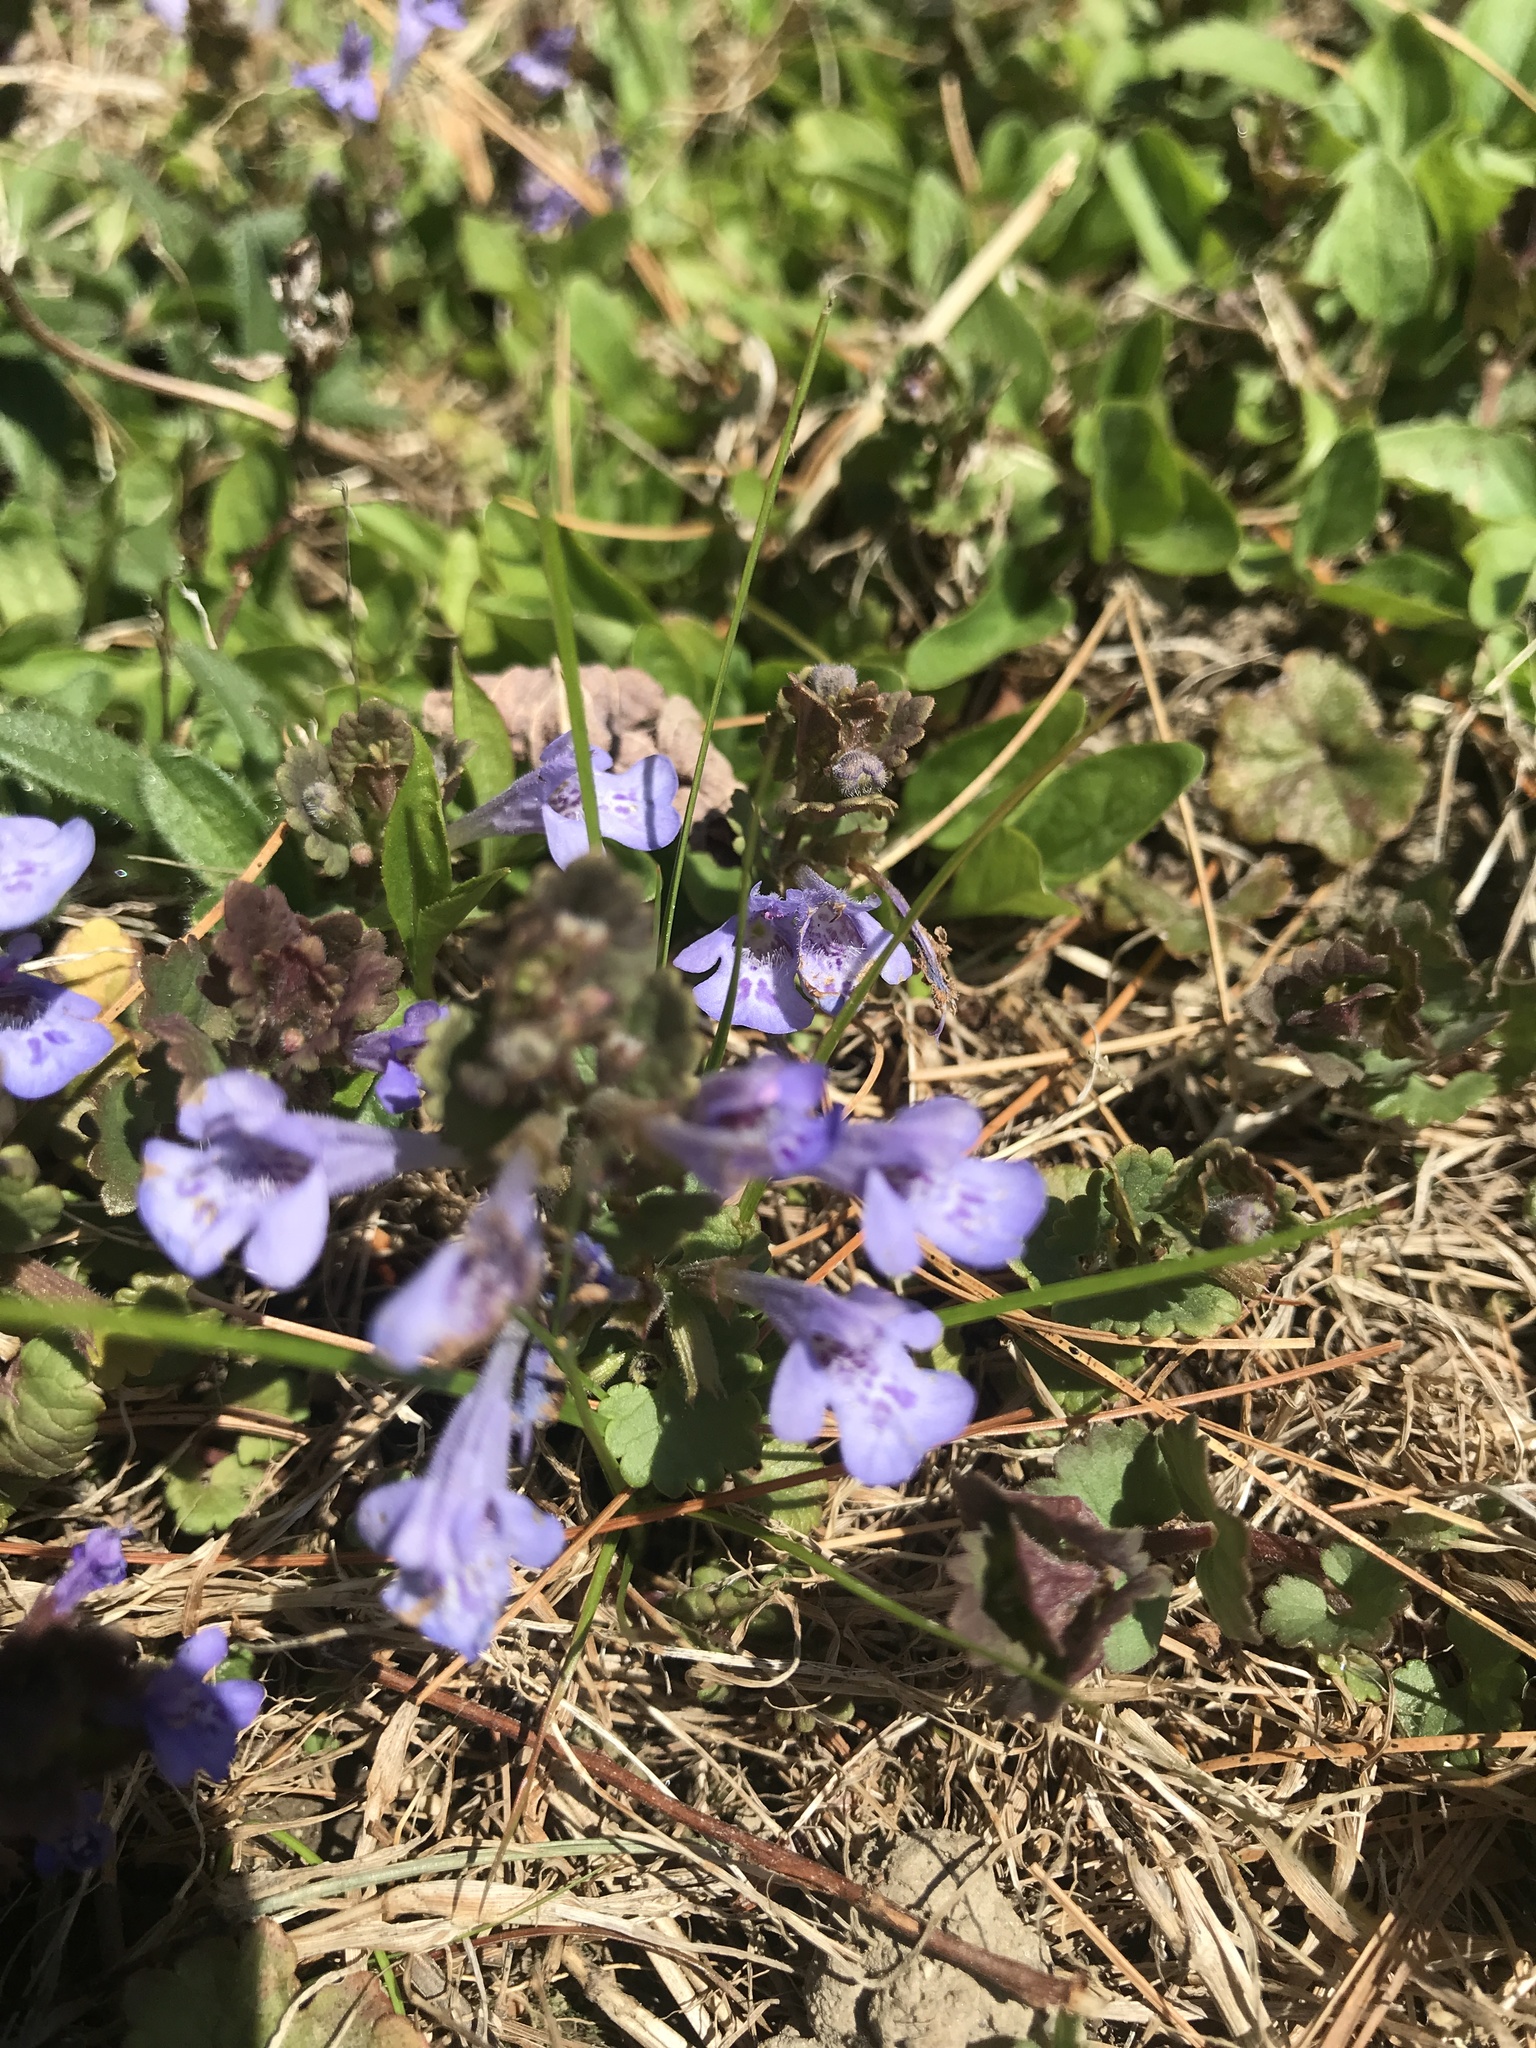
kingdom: Plantae
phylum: Tracheophyta
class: Magnoliopsida
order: Lamiales
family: Lamiaceae
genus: Glechoma
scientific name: Glechoma hederacea
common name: Ground ivy
